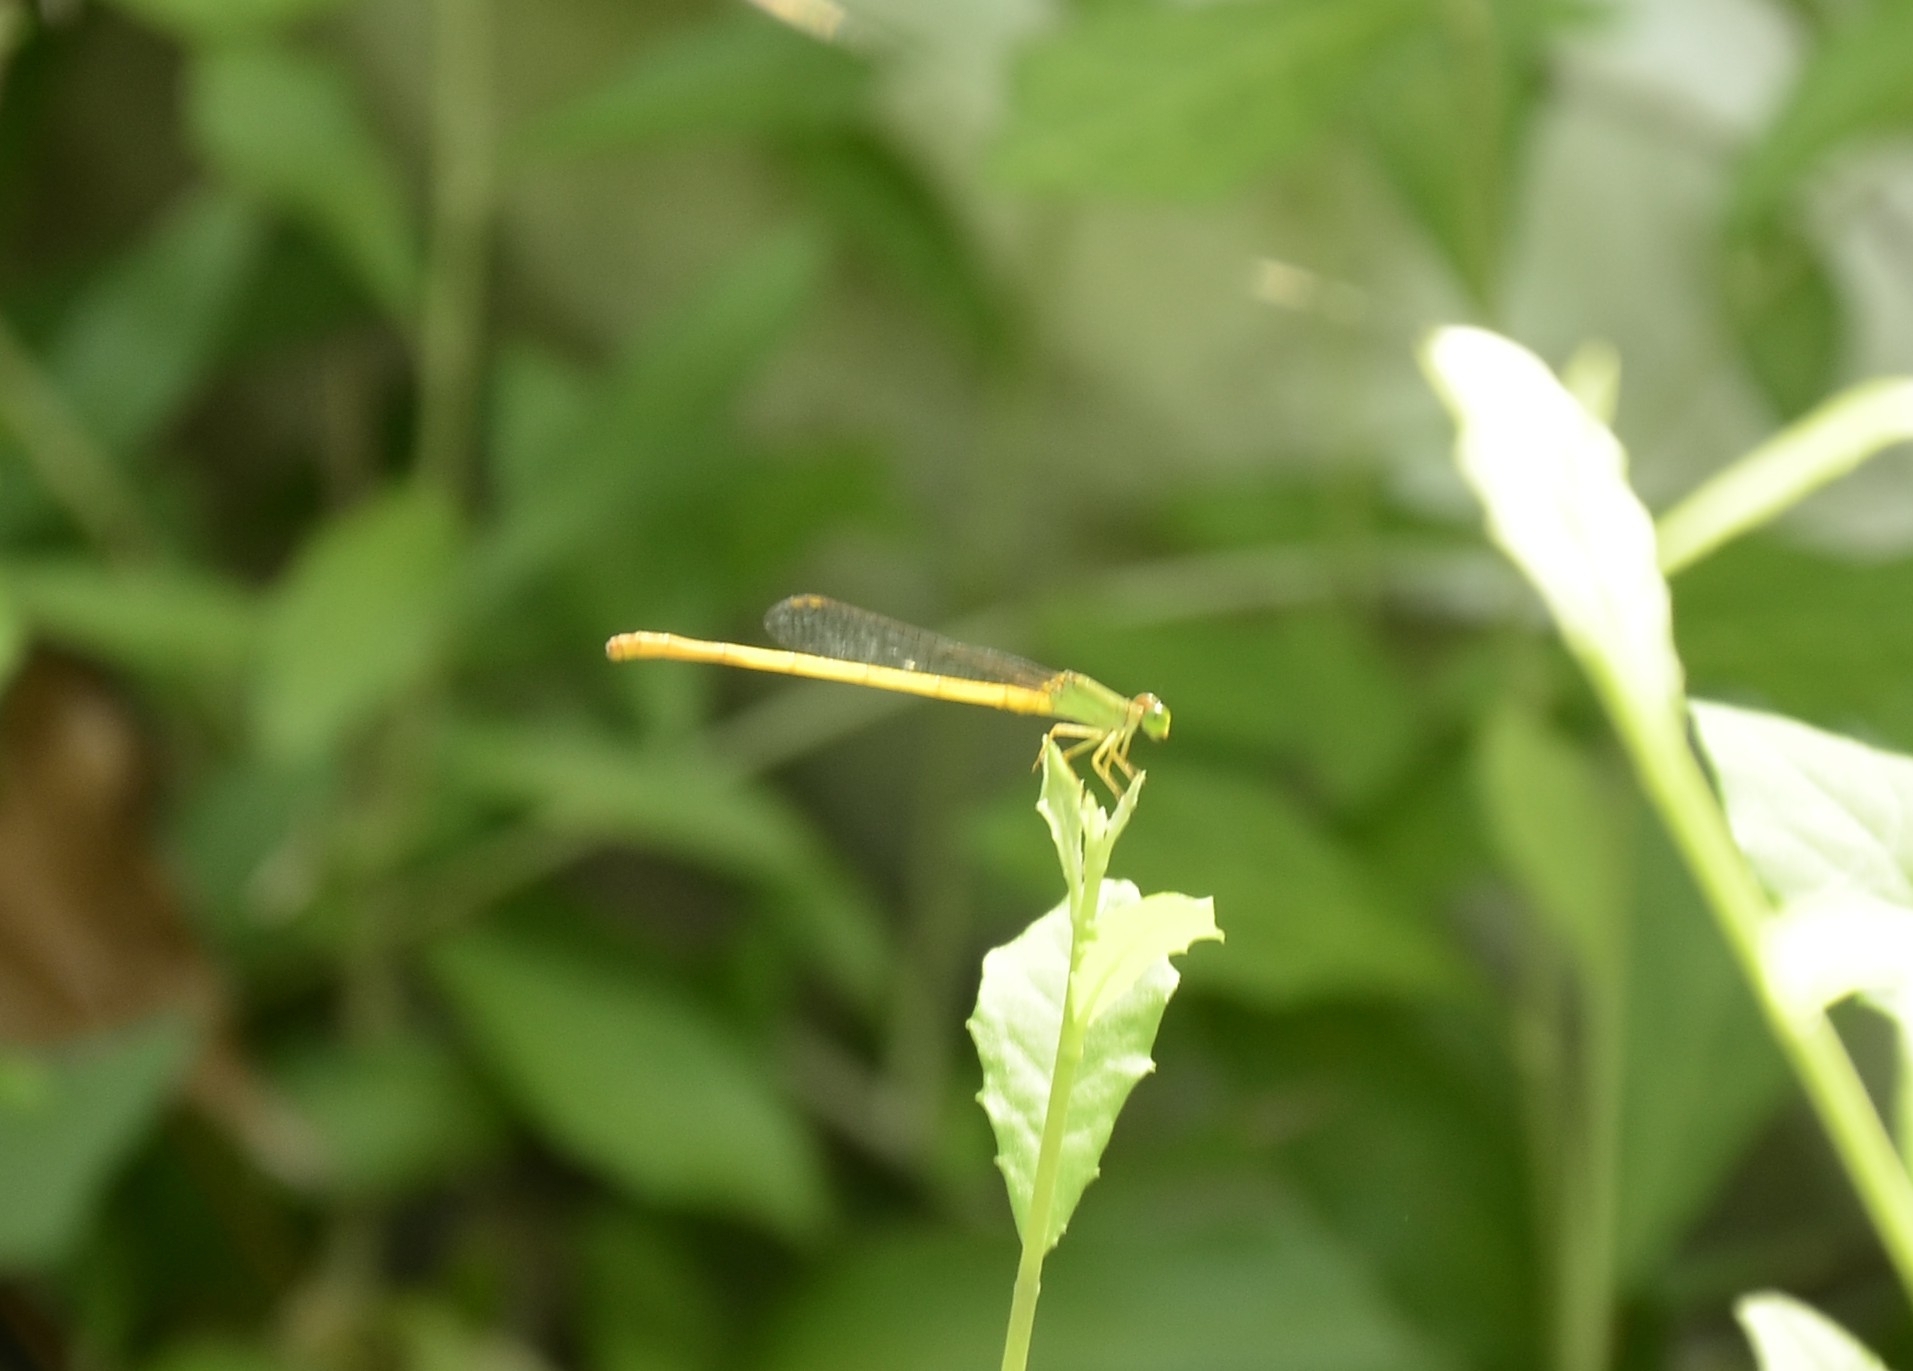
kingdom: Animalia
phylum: Arthropoda
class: Insecta
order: Odonata
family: Coenagrionidae
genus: Ceriagrion
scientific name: Ceriagrion coromandelianum
